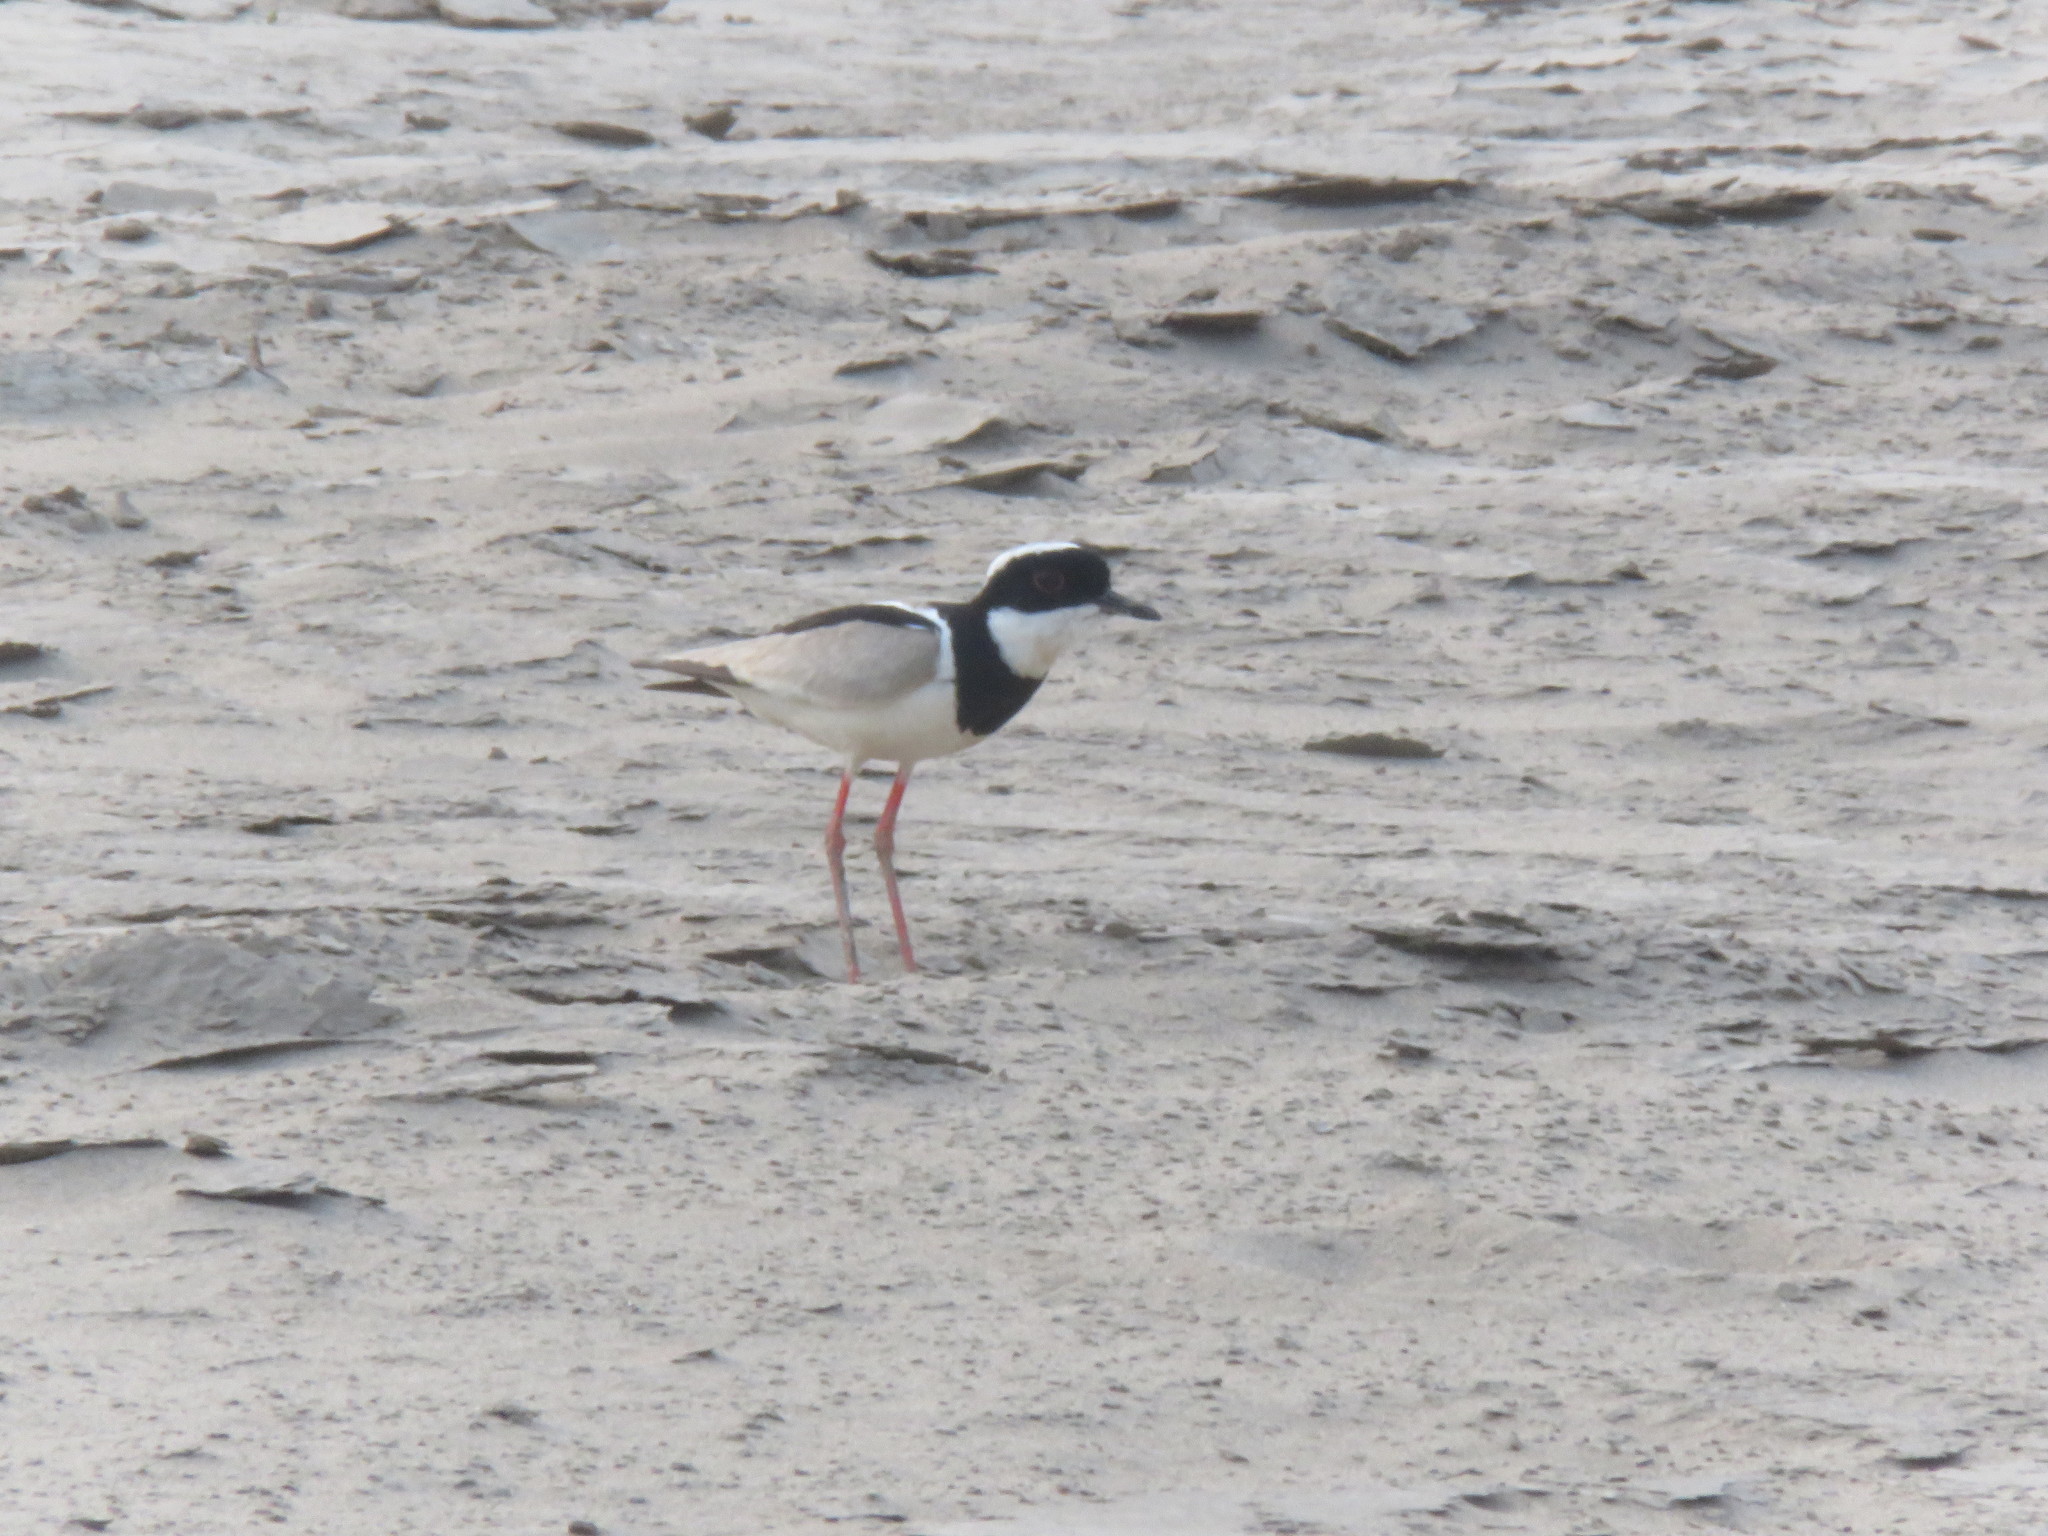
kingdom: Animalia
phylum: Chordata
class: Aves
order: Charadriiformes
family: Charadriidae
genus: Hoploxypterus
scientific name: Hoploxypterus cayanus
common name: Pied plover
